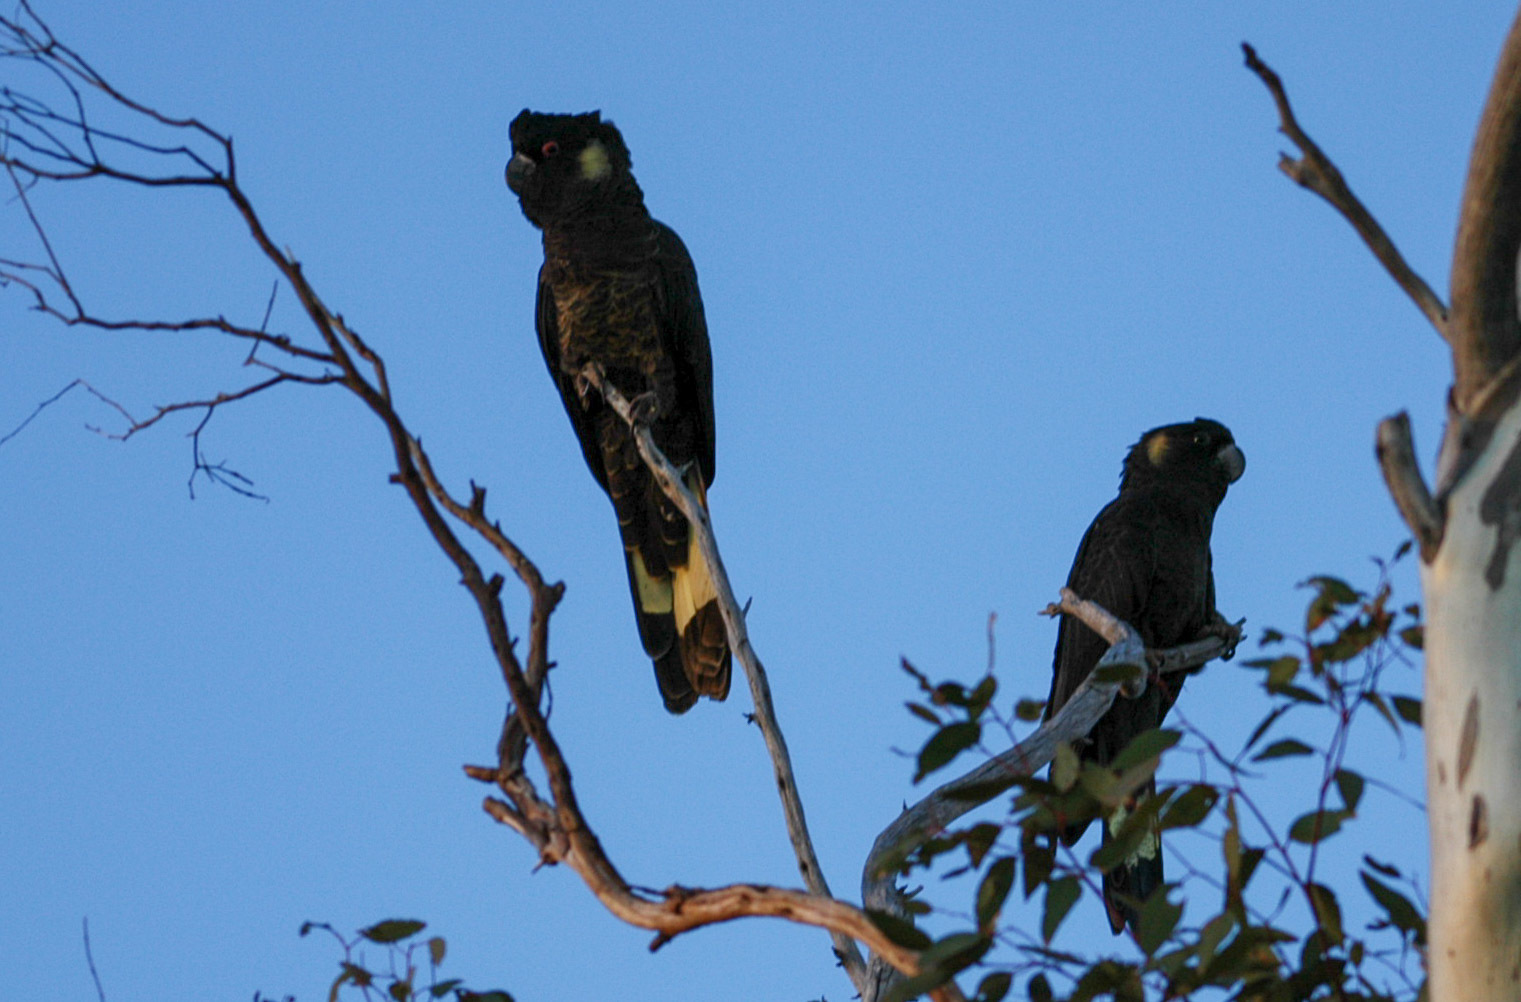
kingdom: Animalia
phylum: Chordata
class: Aves
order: Psittaciformes
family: Cacatuidae
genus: Zanda
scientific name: Zanda funerea
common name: Yellow-tailed black-cockatoo
